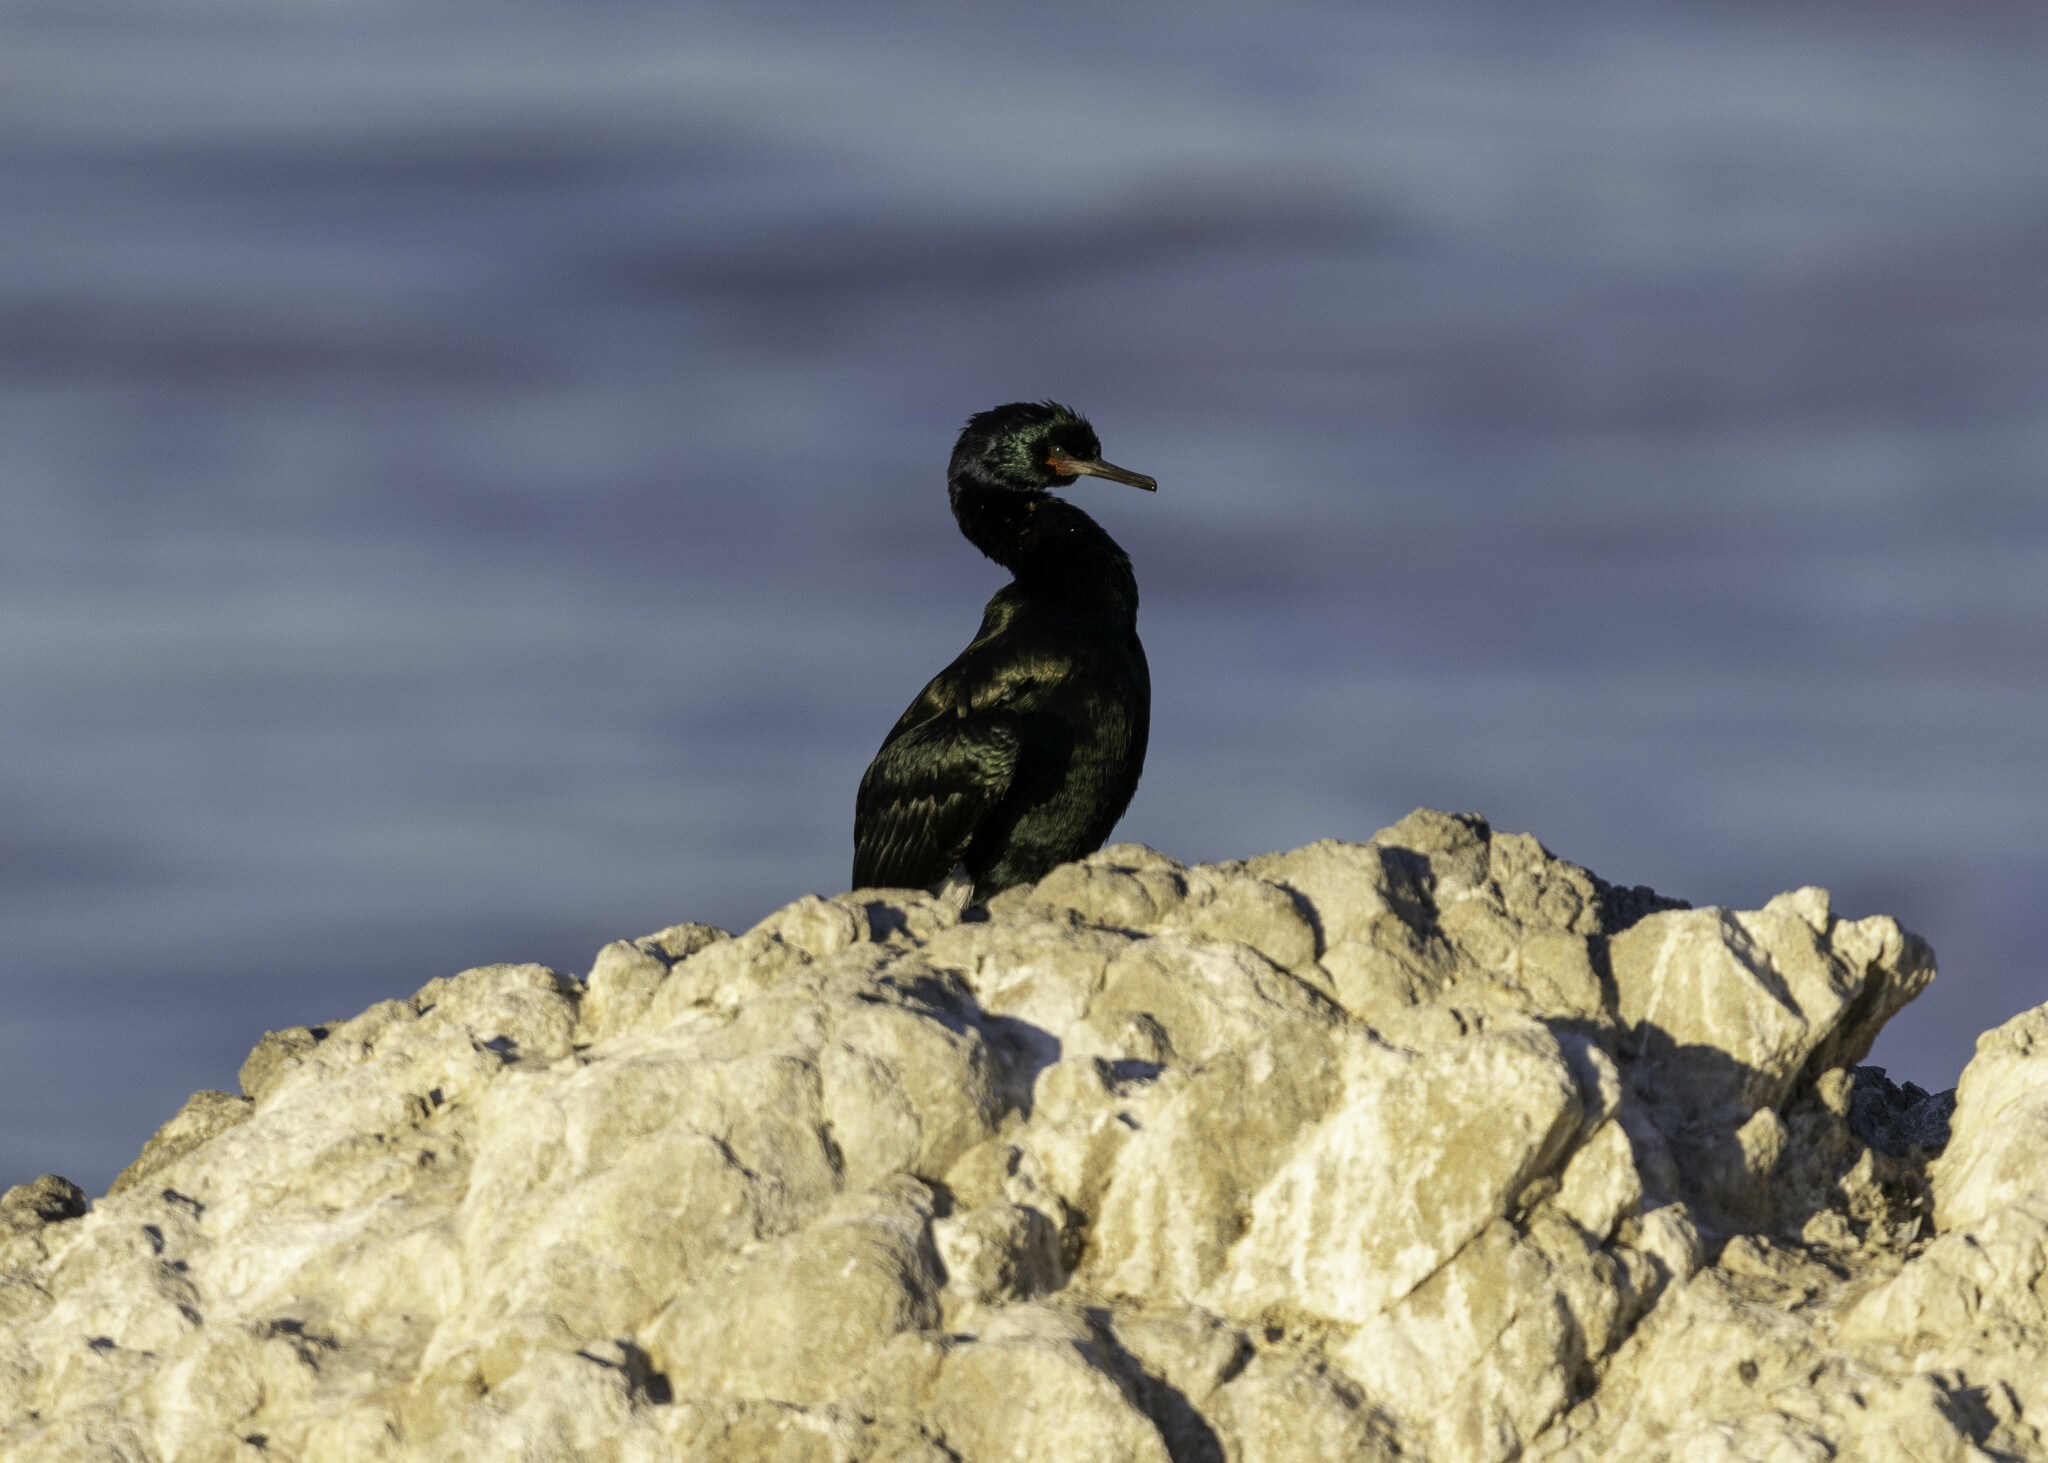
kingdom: Animalia
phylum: Chordata
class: Aves
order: Suliformes
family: Phalacrocoracidae
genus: Phalacrocorax
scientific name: Phalacrocorax pelagicus
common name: Pelagic cormorant
